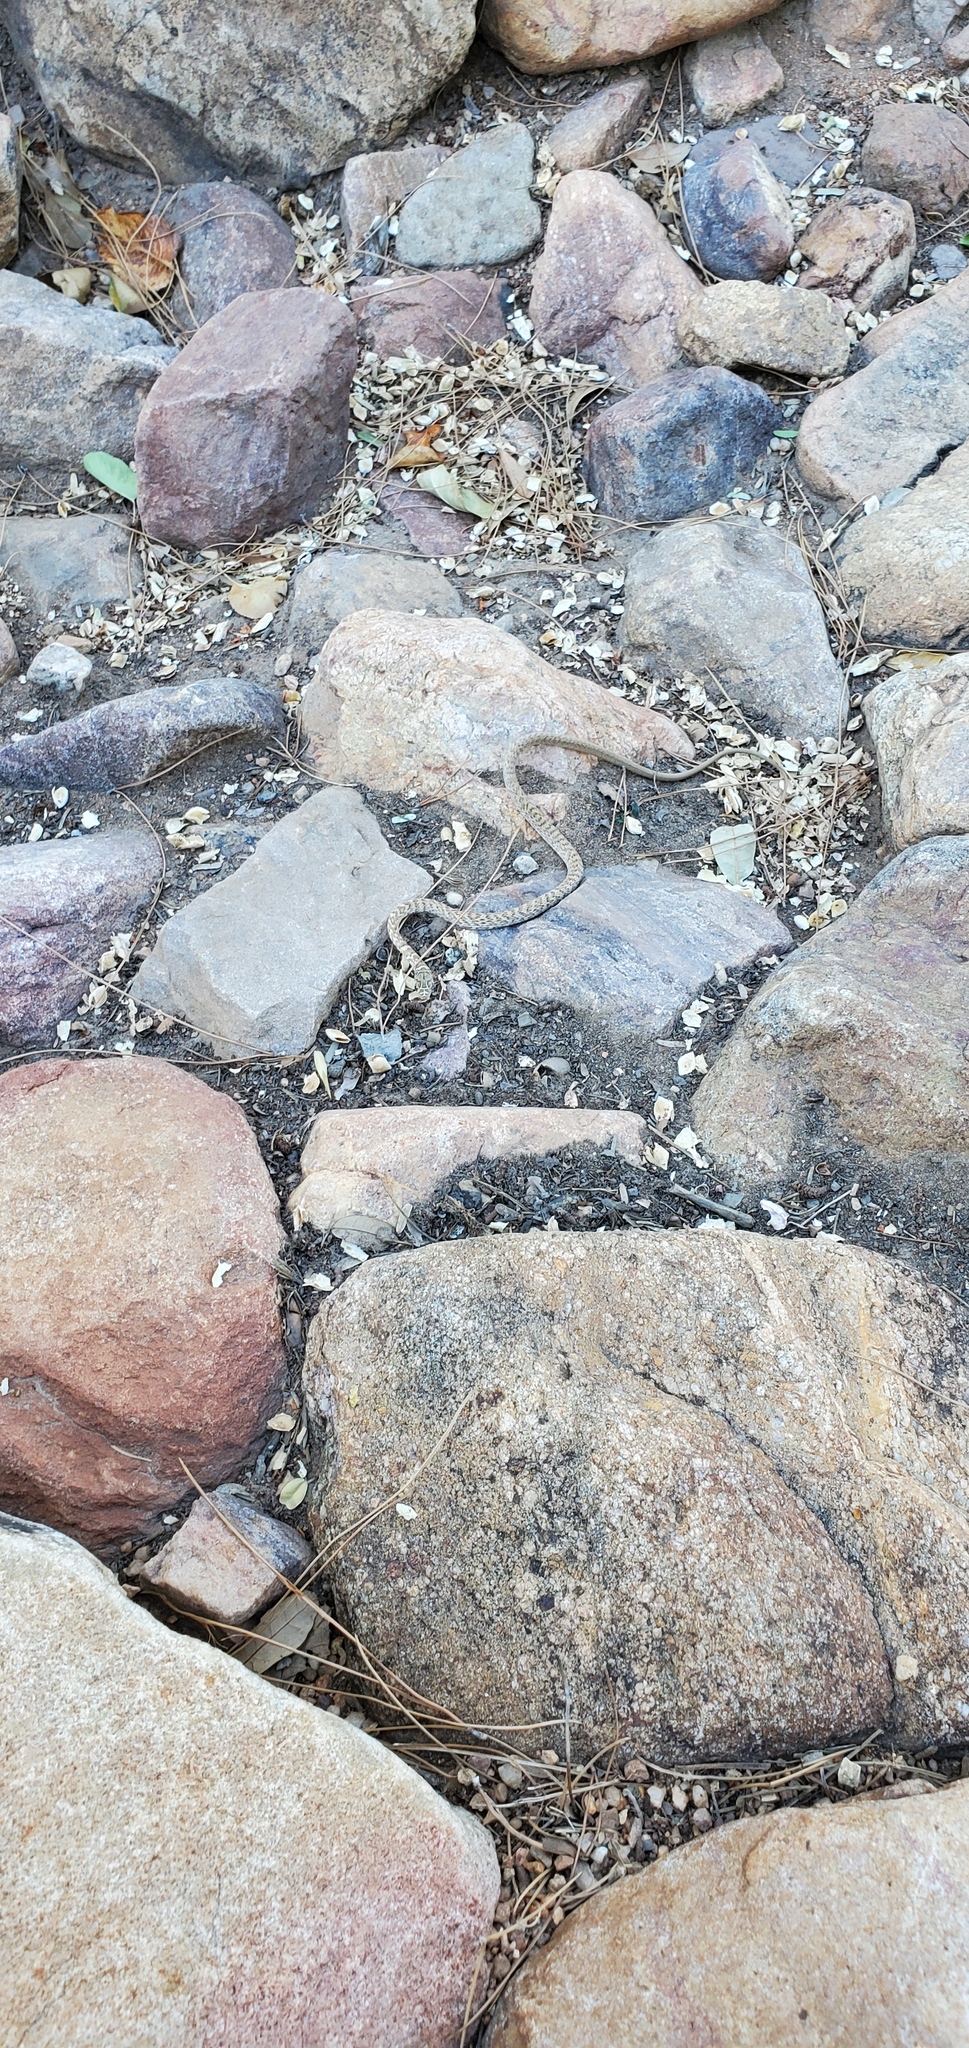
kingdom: Animalia
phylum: Chordata
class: Squamata
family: Colubridae
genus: Masticophis
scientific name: Masticophis flagellum
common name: Coachwhip
